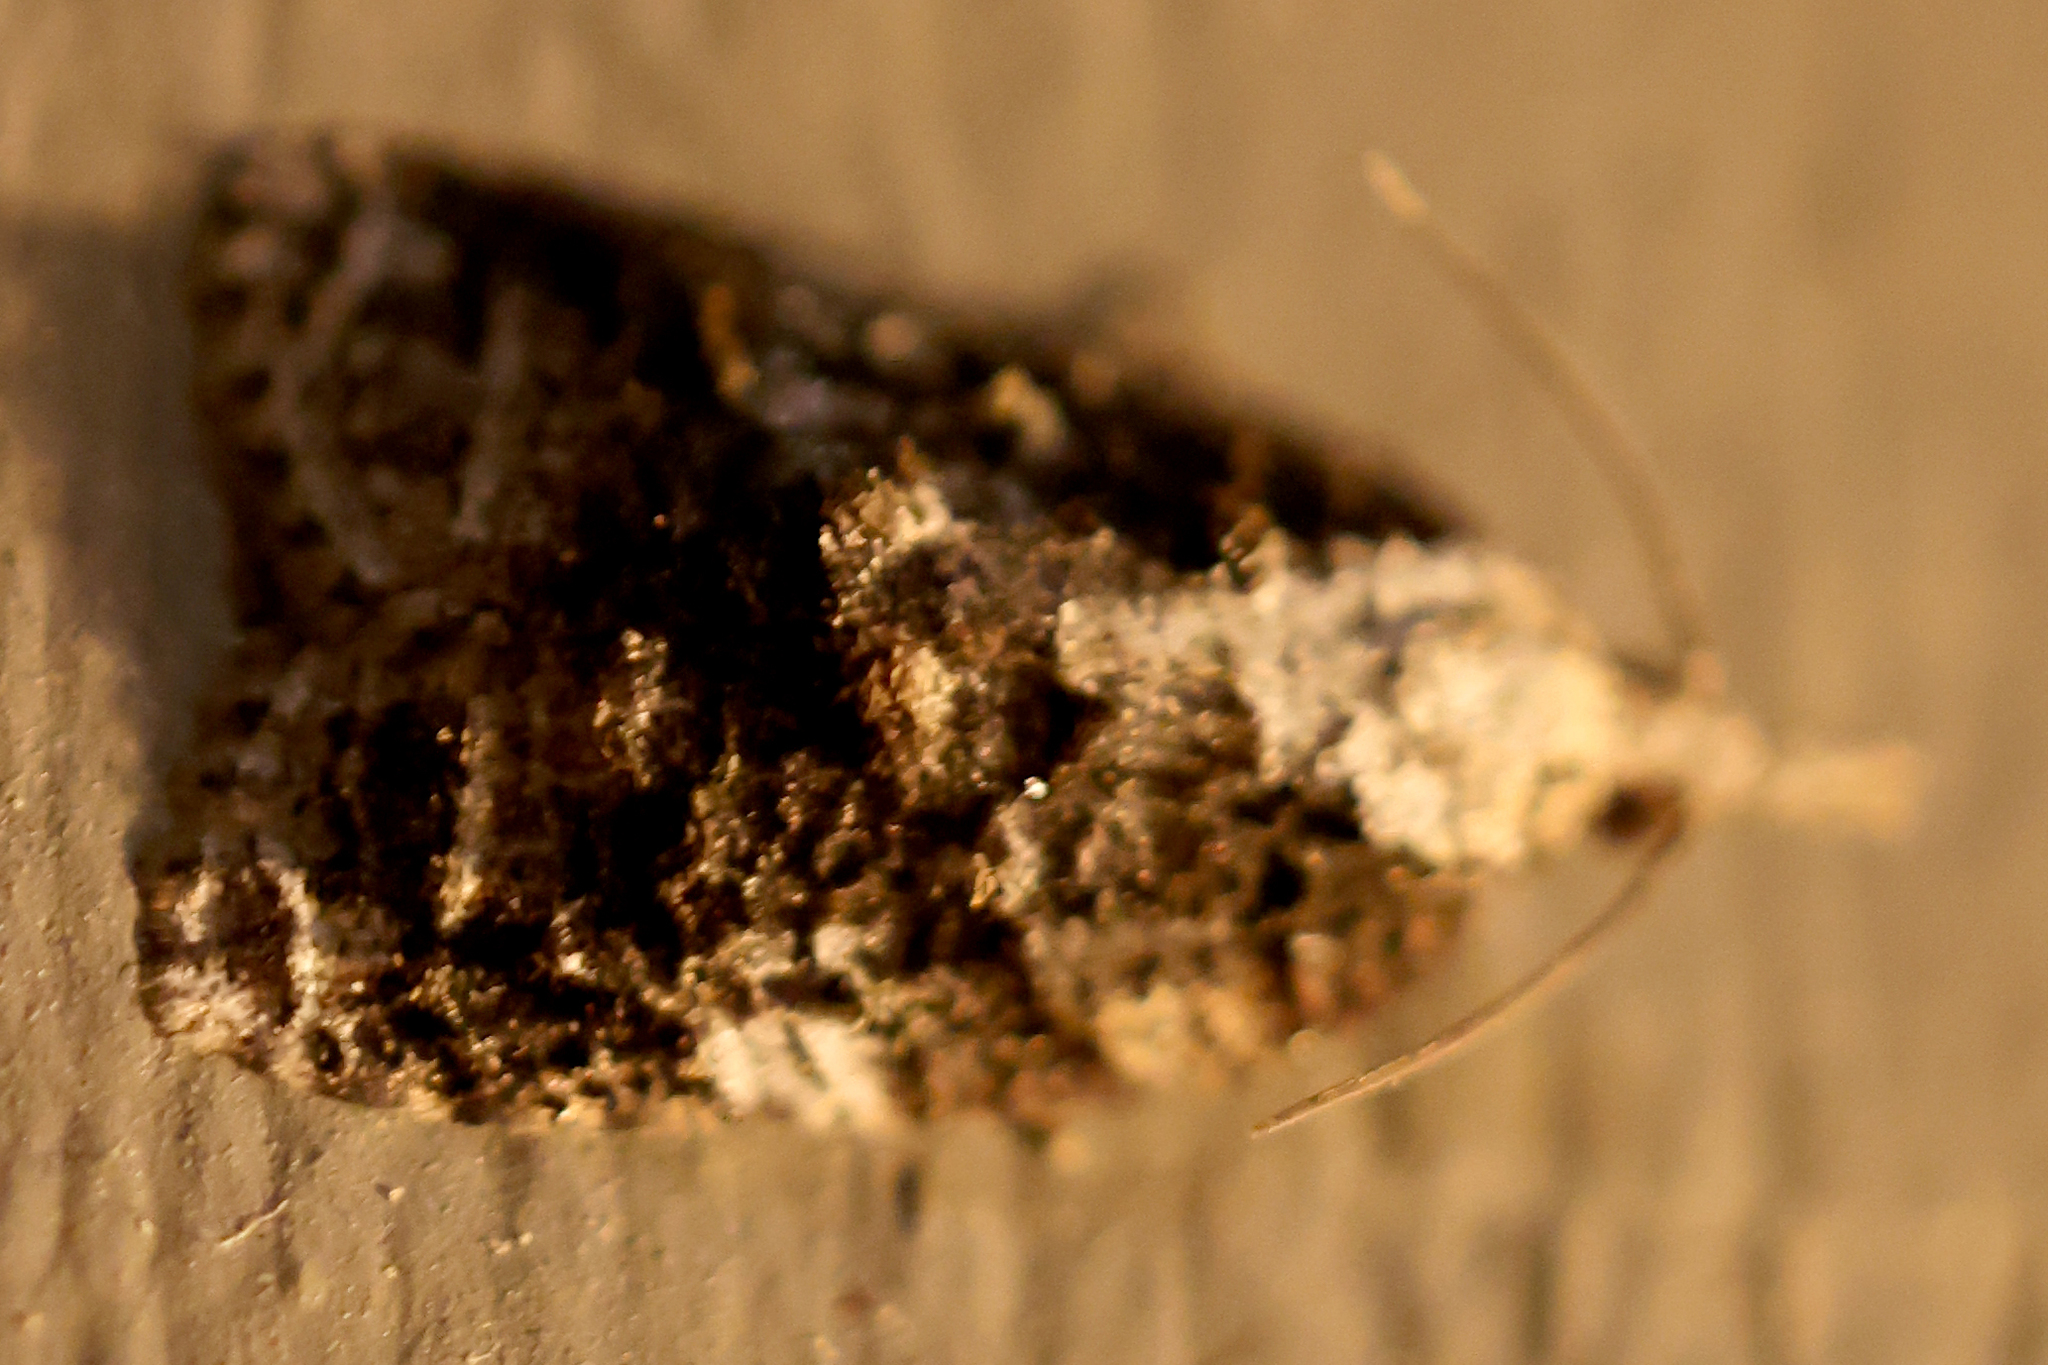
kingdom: Animalia
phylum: Arthropoda
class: Insecta
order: Lepidoptera
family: Tortricidae
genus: Platynota
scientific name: Platynota exasperatana
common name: Exasperating platynota moth
